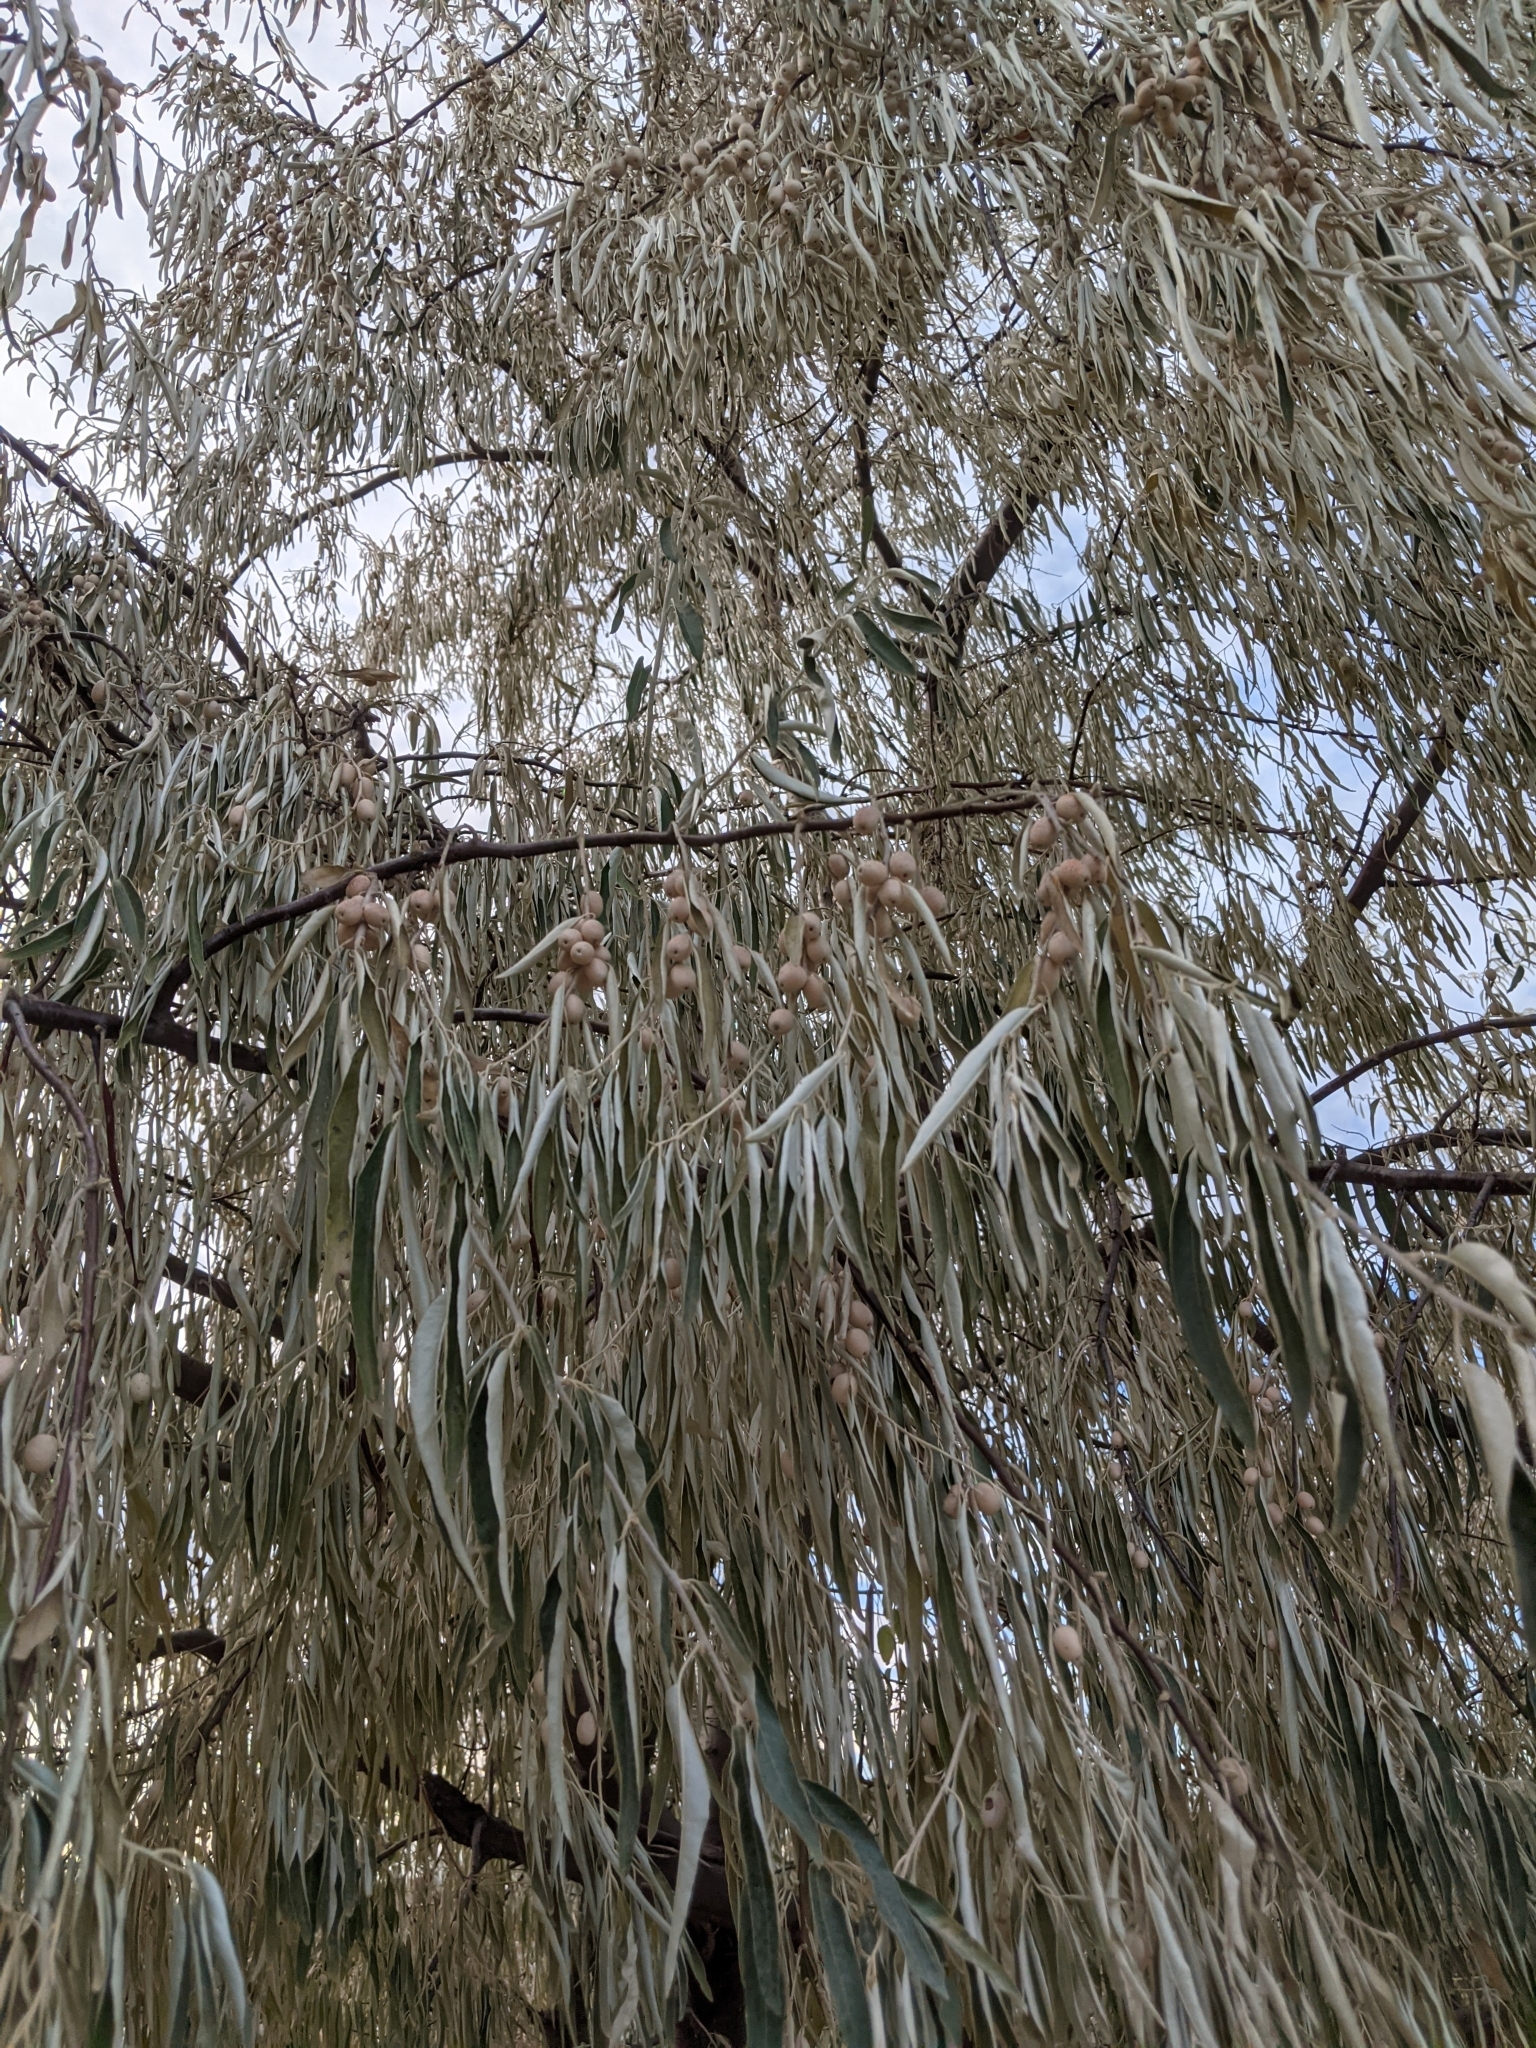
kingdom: Plantae
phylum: Tracheophyta
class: Magnoliopsida
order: Rosales
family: Elaeagnaceae
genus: Elaeagnus
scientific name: Elaeagnus angustifolia
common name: Russian olive
